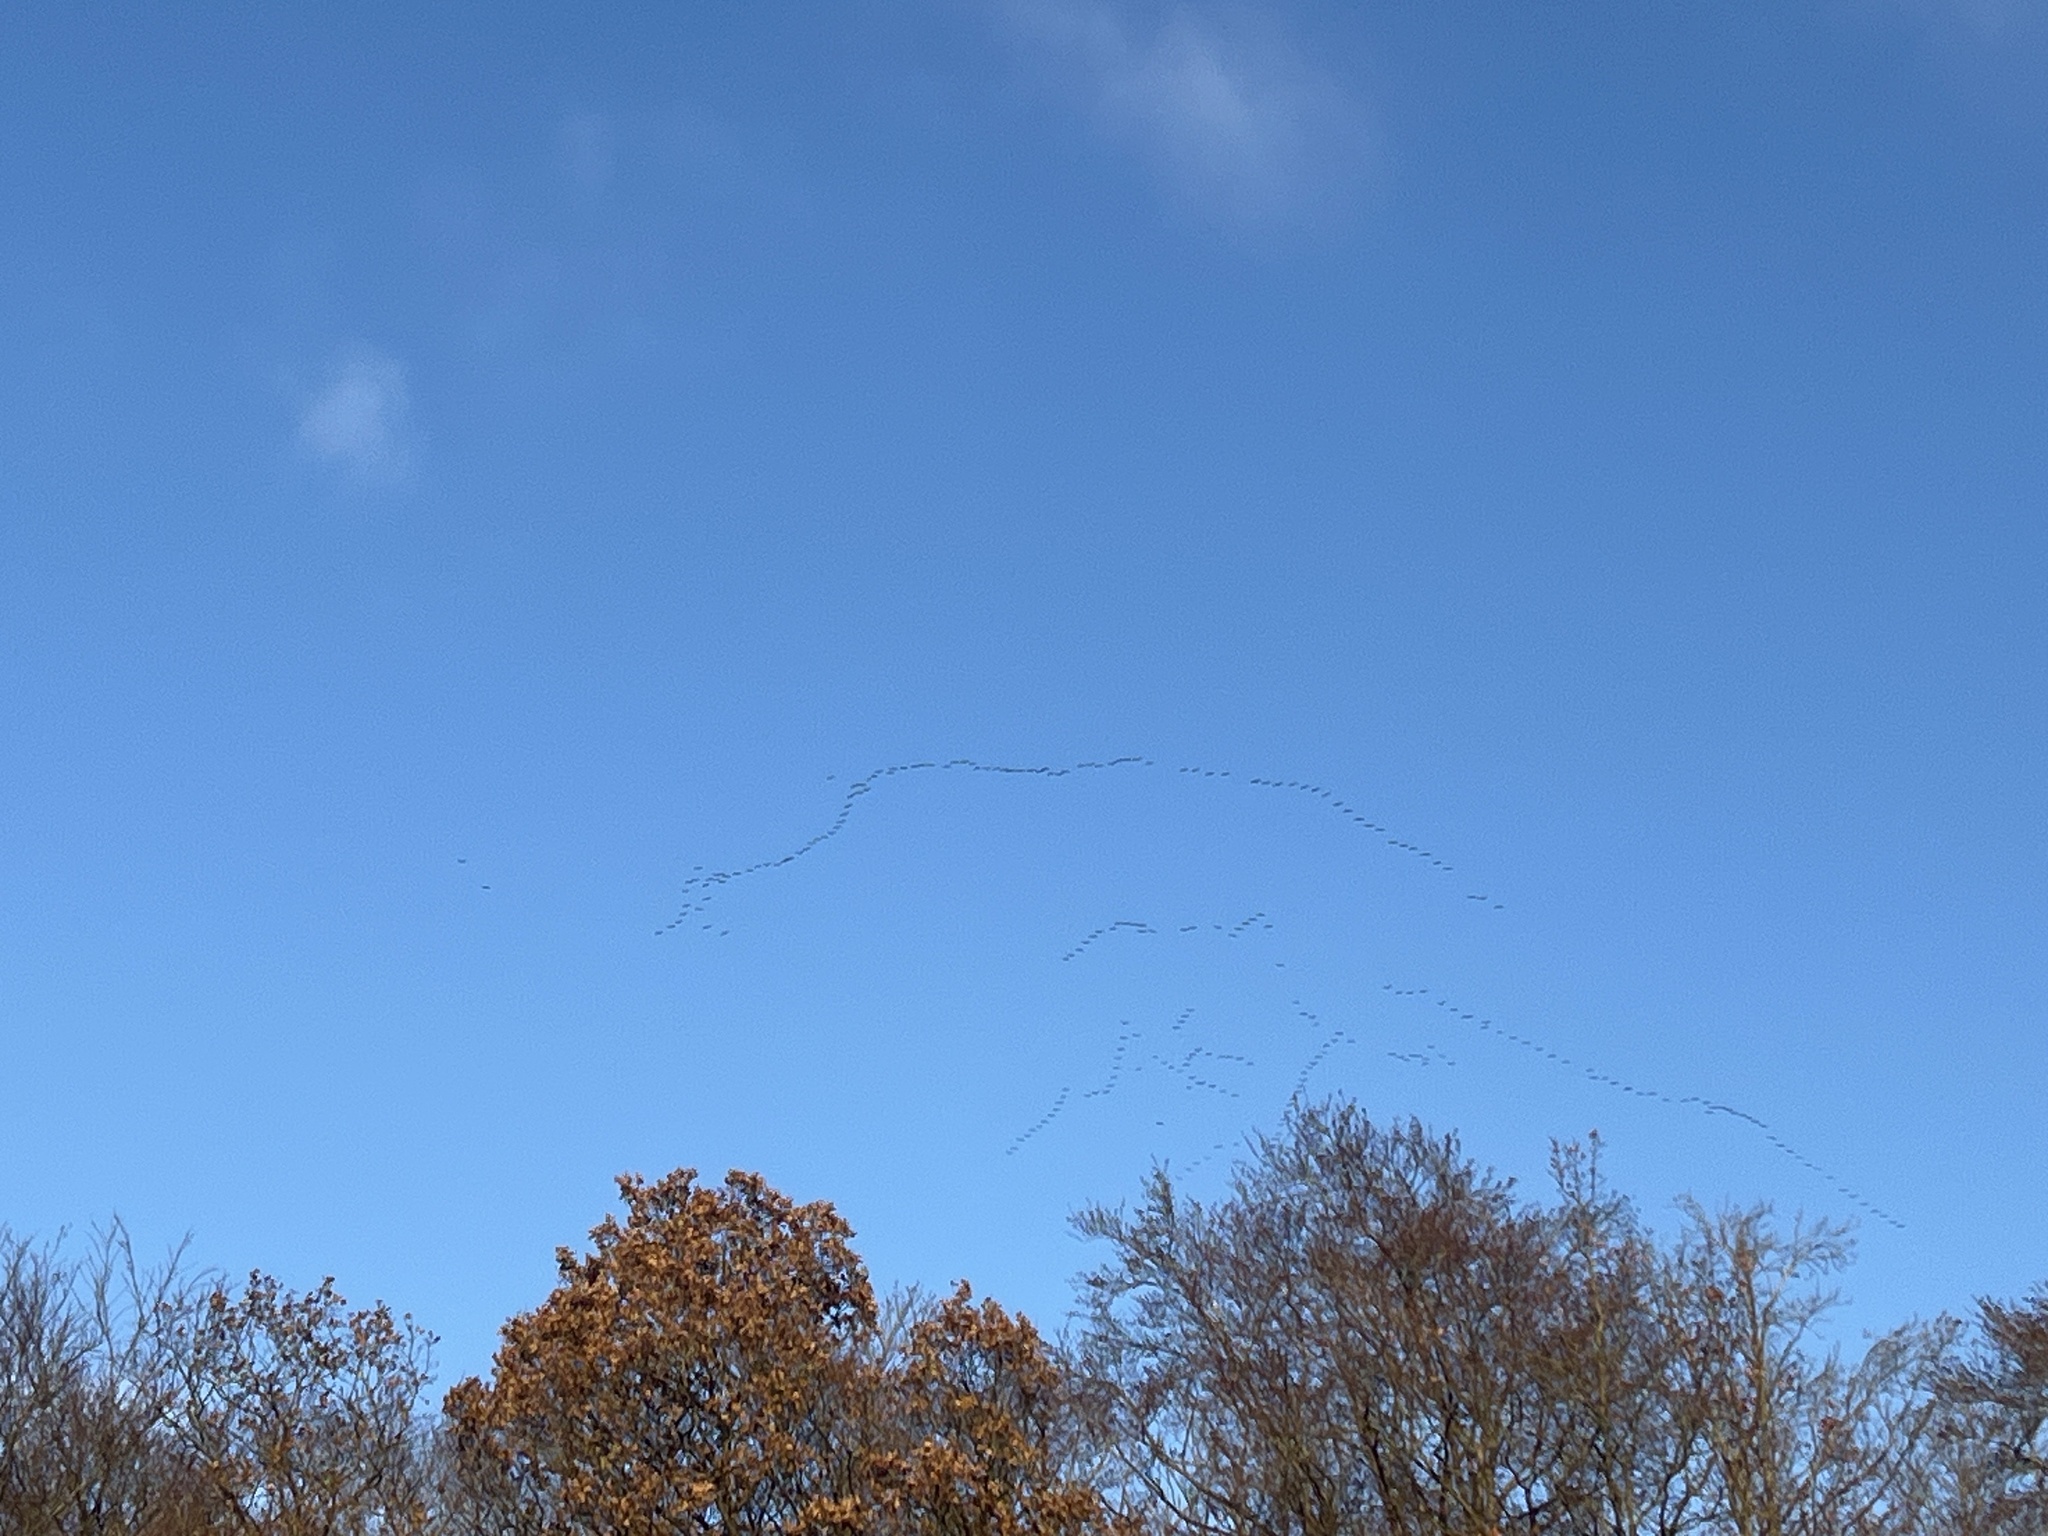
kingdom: Animalia
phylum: Chordata
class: Aves
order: Gruiformes
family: Gruidae
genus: Grus
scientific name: Grus grus
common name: Common crane
